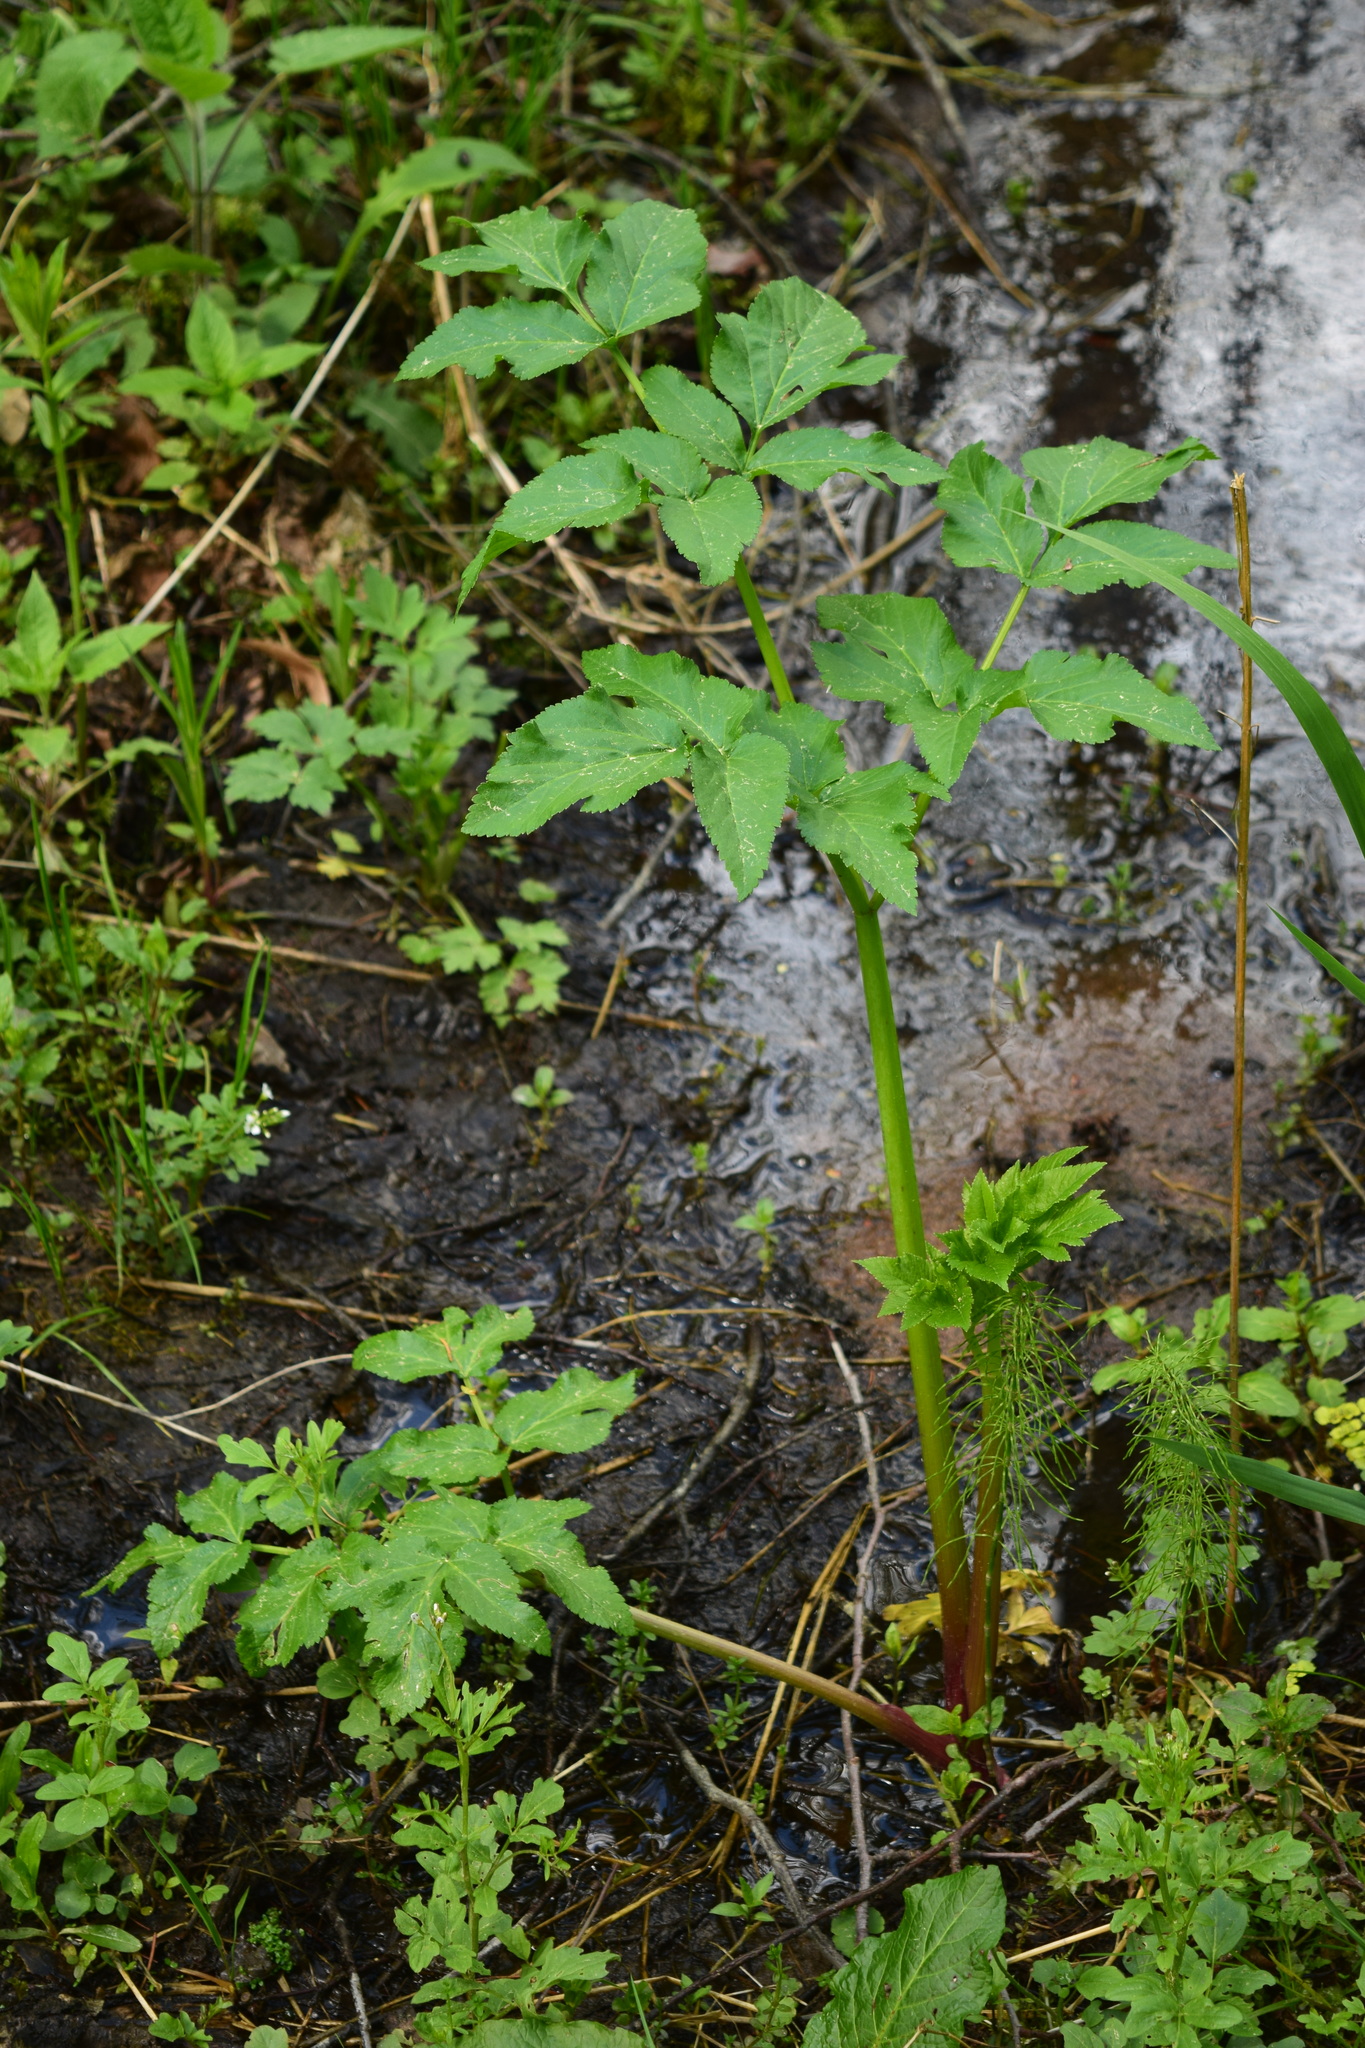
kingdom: Plantae
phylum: Tracheophyta
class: Magnoliopsida
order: Apiales
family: Apiaceae
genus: Angelica
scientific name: Angelica archangelica
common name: Garden angelica
